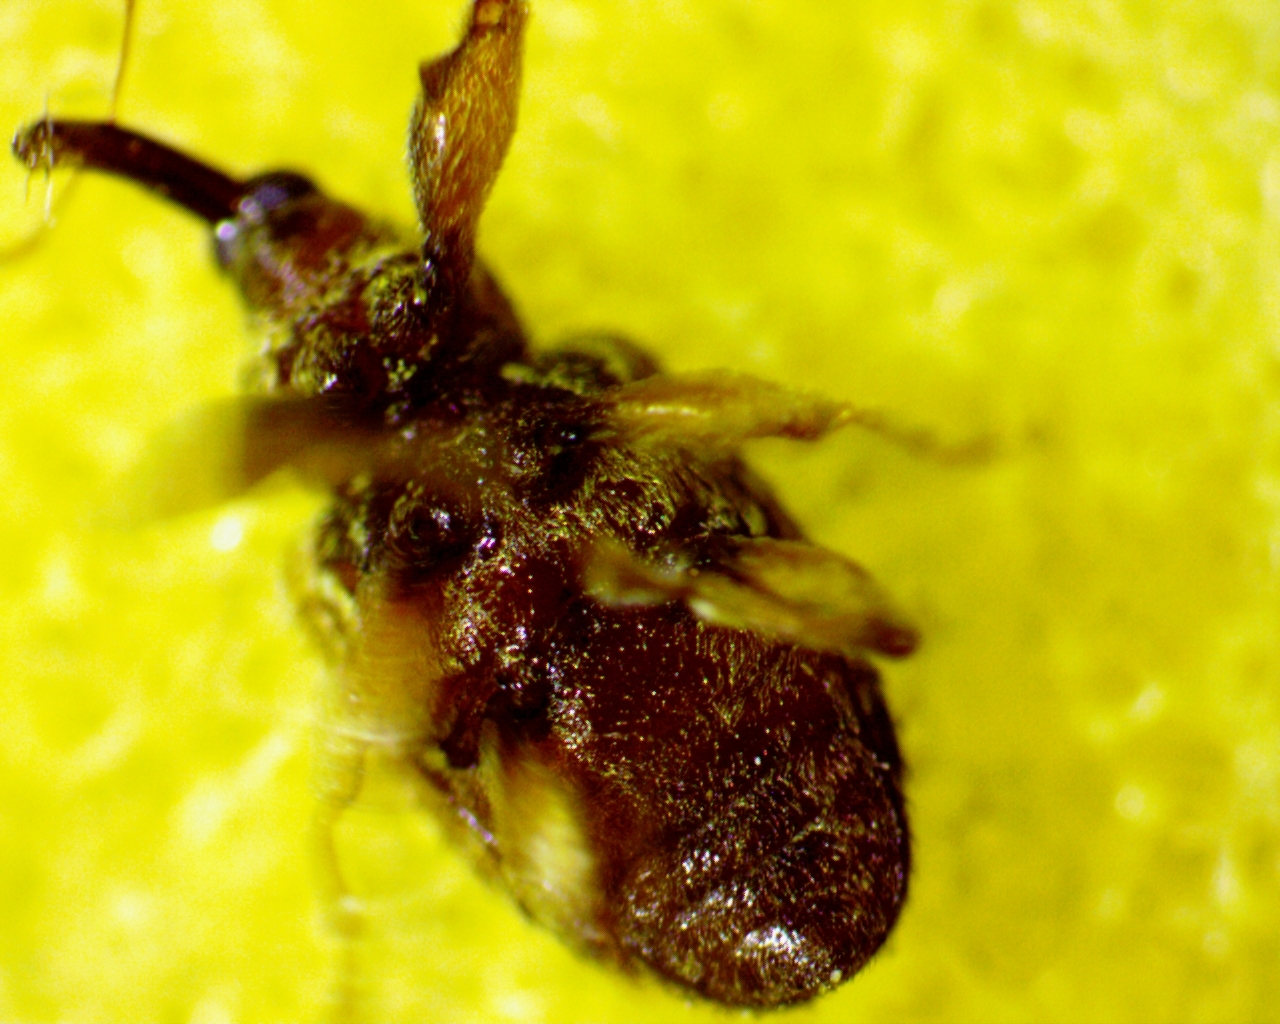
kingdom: Animalia
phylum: Arthropoda
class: Insecta
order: Coleoptera
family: Curculionidae
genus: Ochyromera
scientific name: Ochyromera ligustri
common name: Weevil
